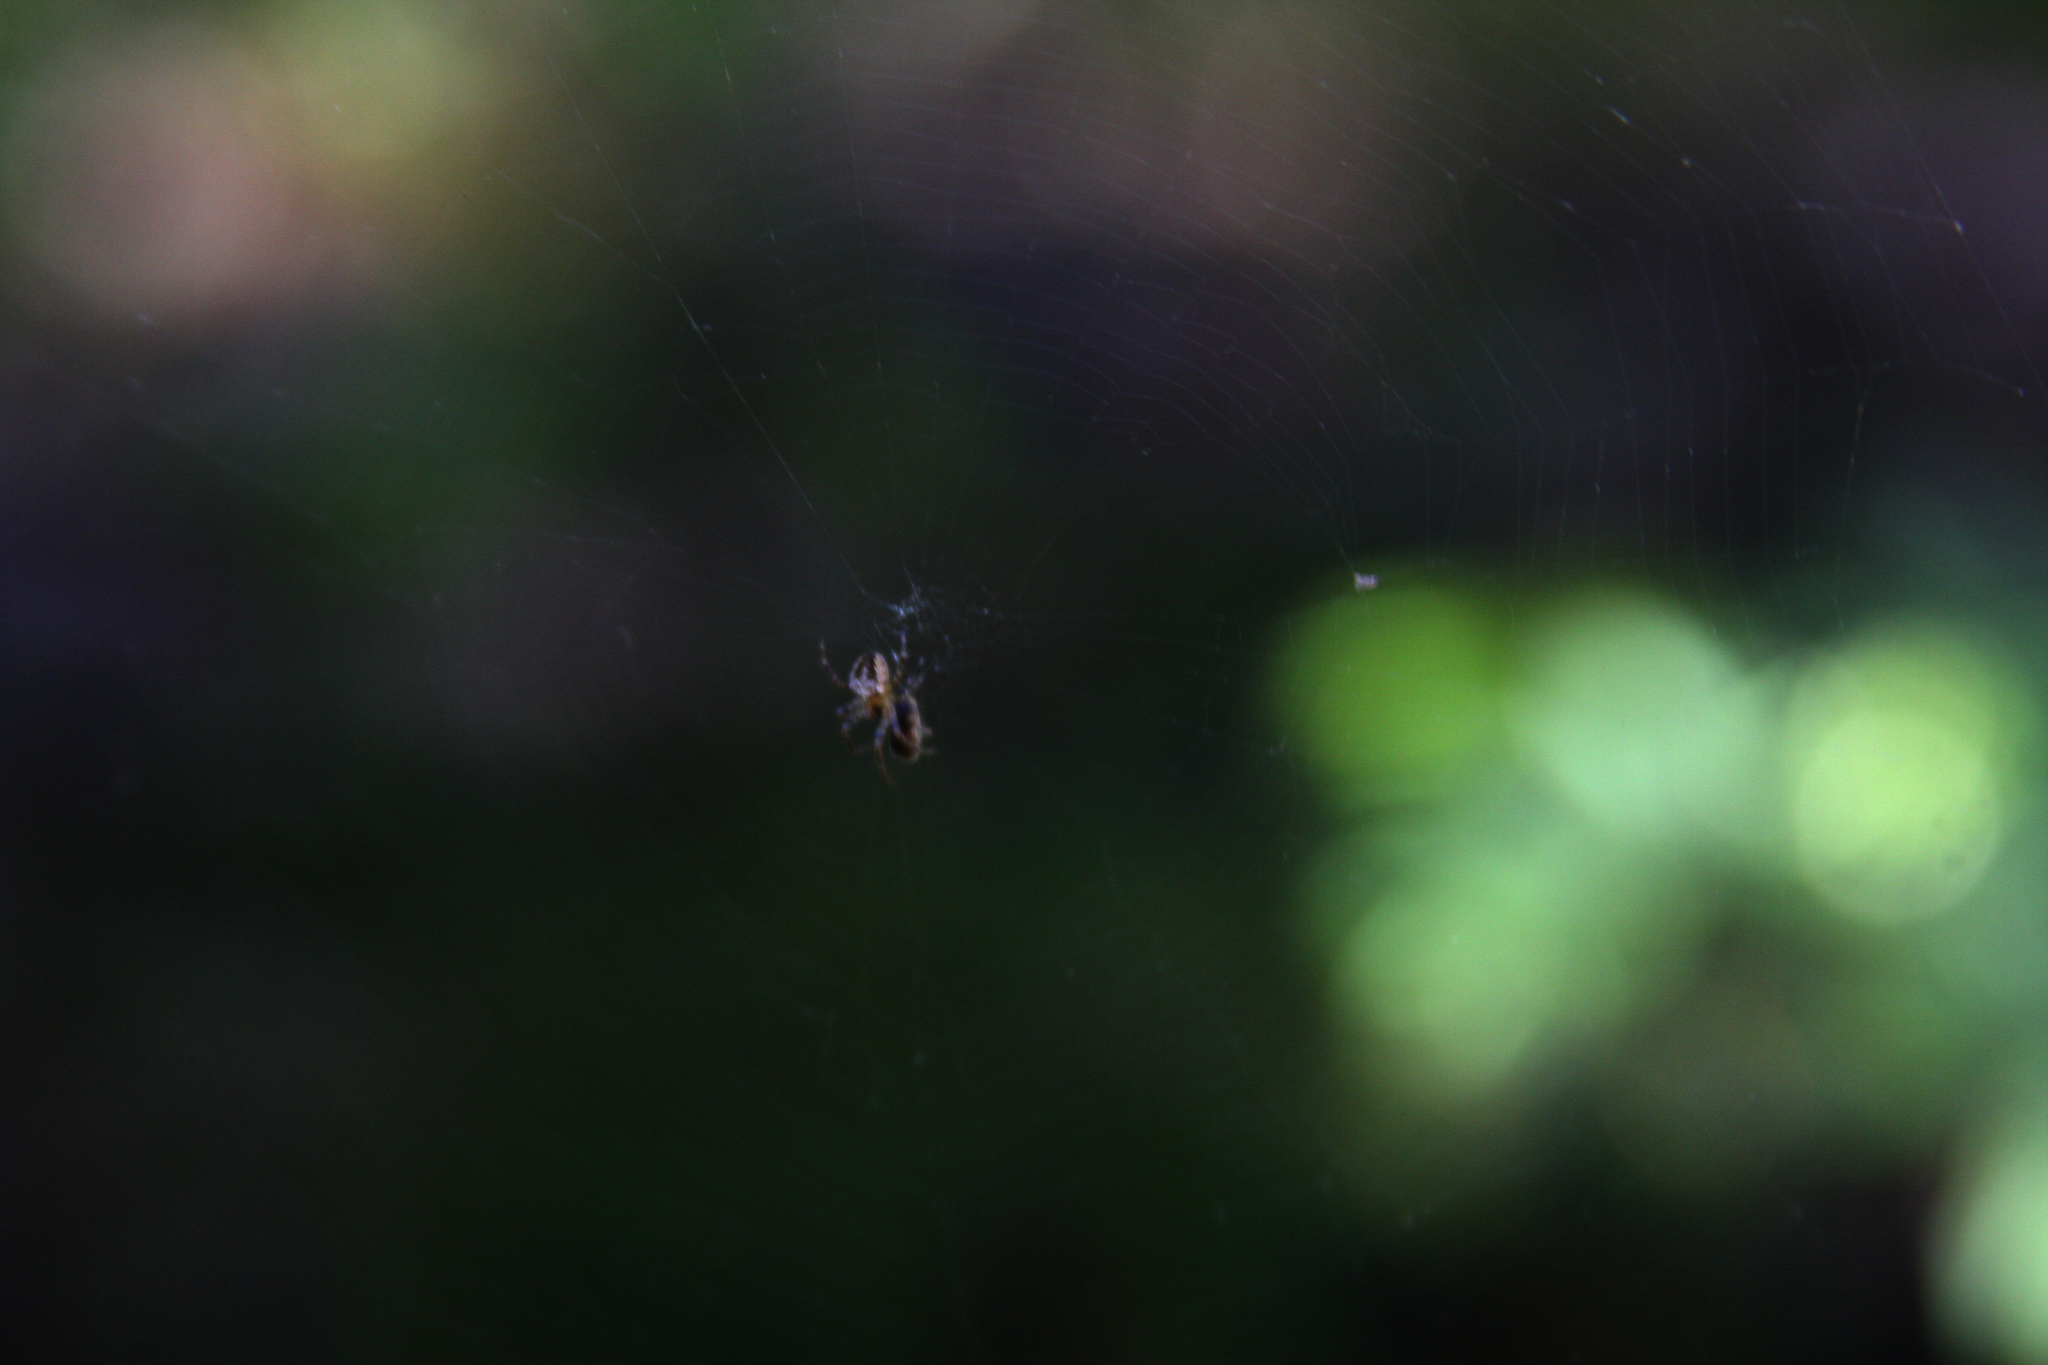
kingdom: Animalia
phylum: Arthropoda
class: Arachnida
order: Araneae
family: Araneidae
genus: Araneus
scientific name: Araneus nordmanni
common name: Nordmann's orbweaver
